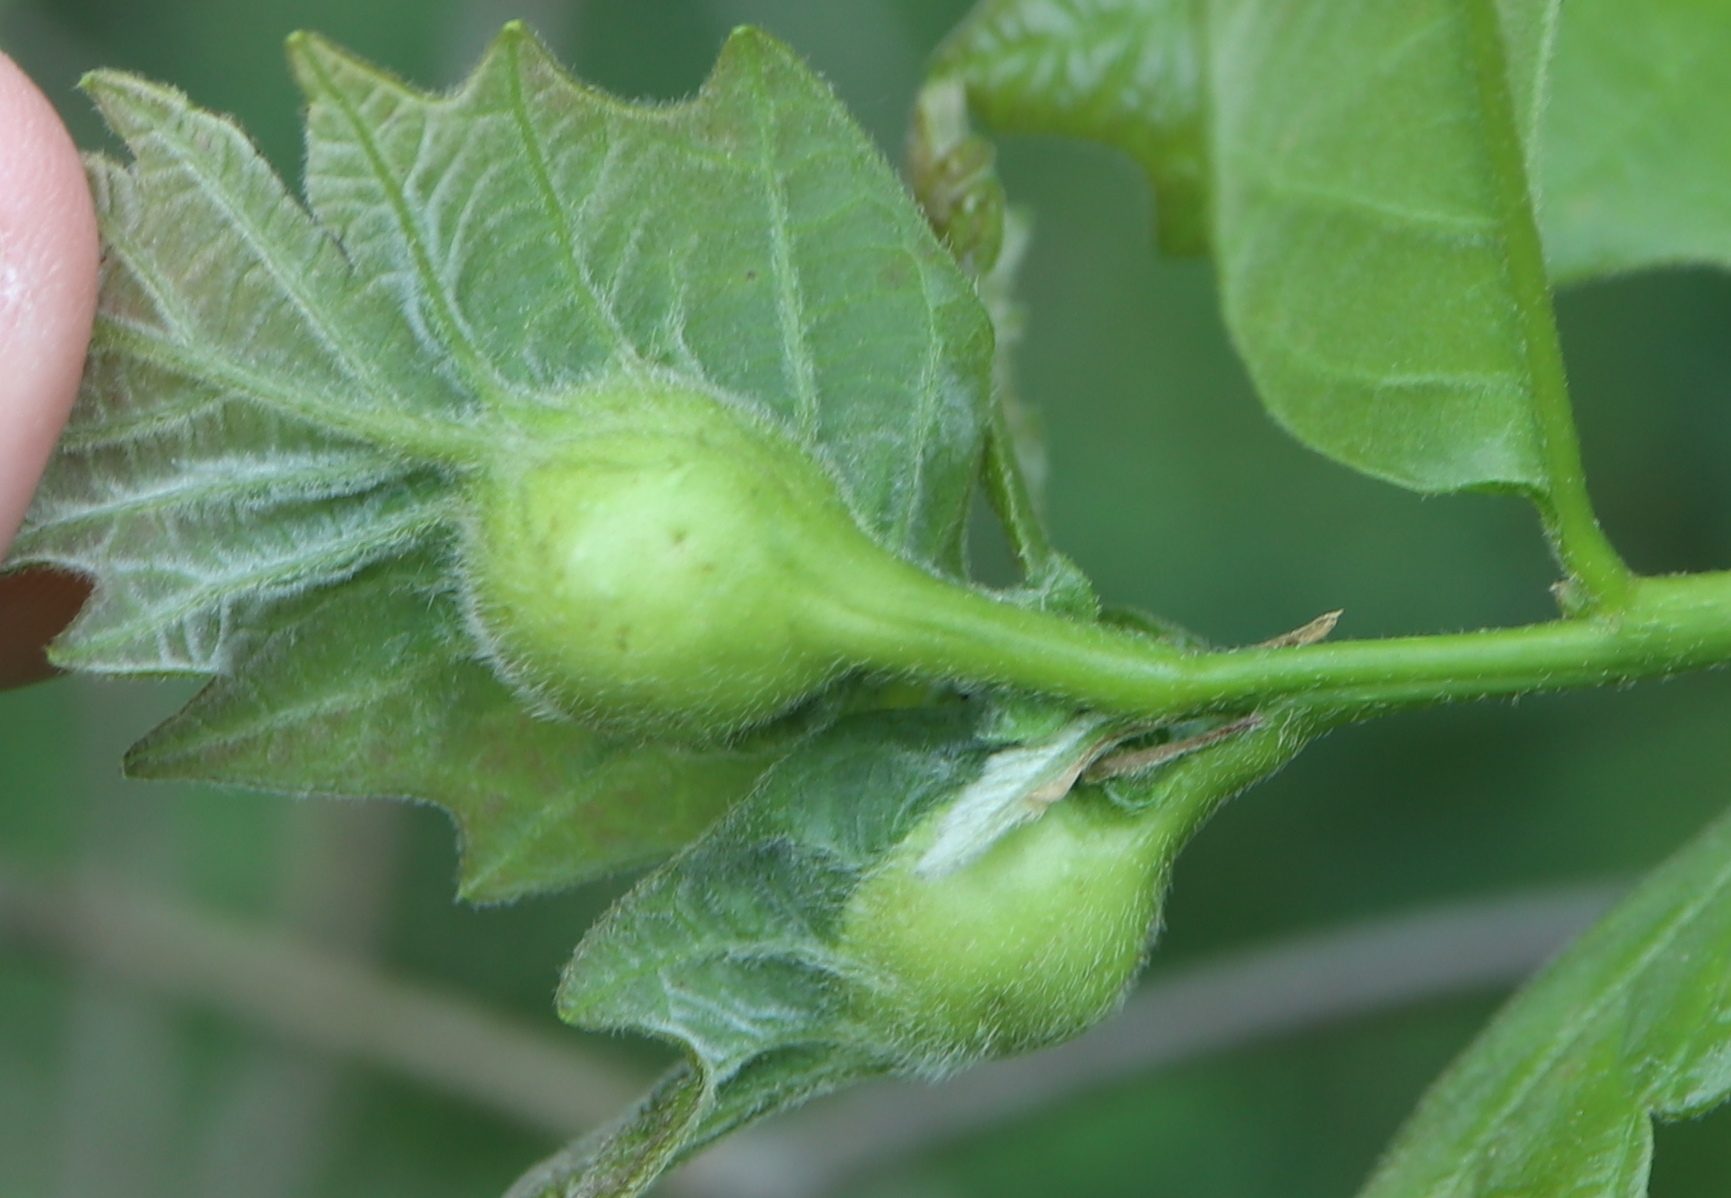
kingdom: Animalia
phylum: Arthropoda
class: Insecta
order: Hymenoptera
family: Cynipidae
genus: Andricus
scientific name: Andricus
